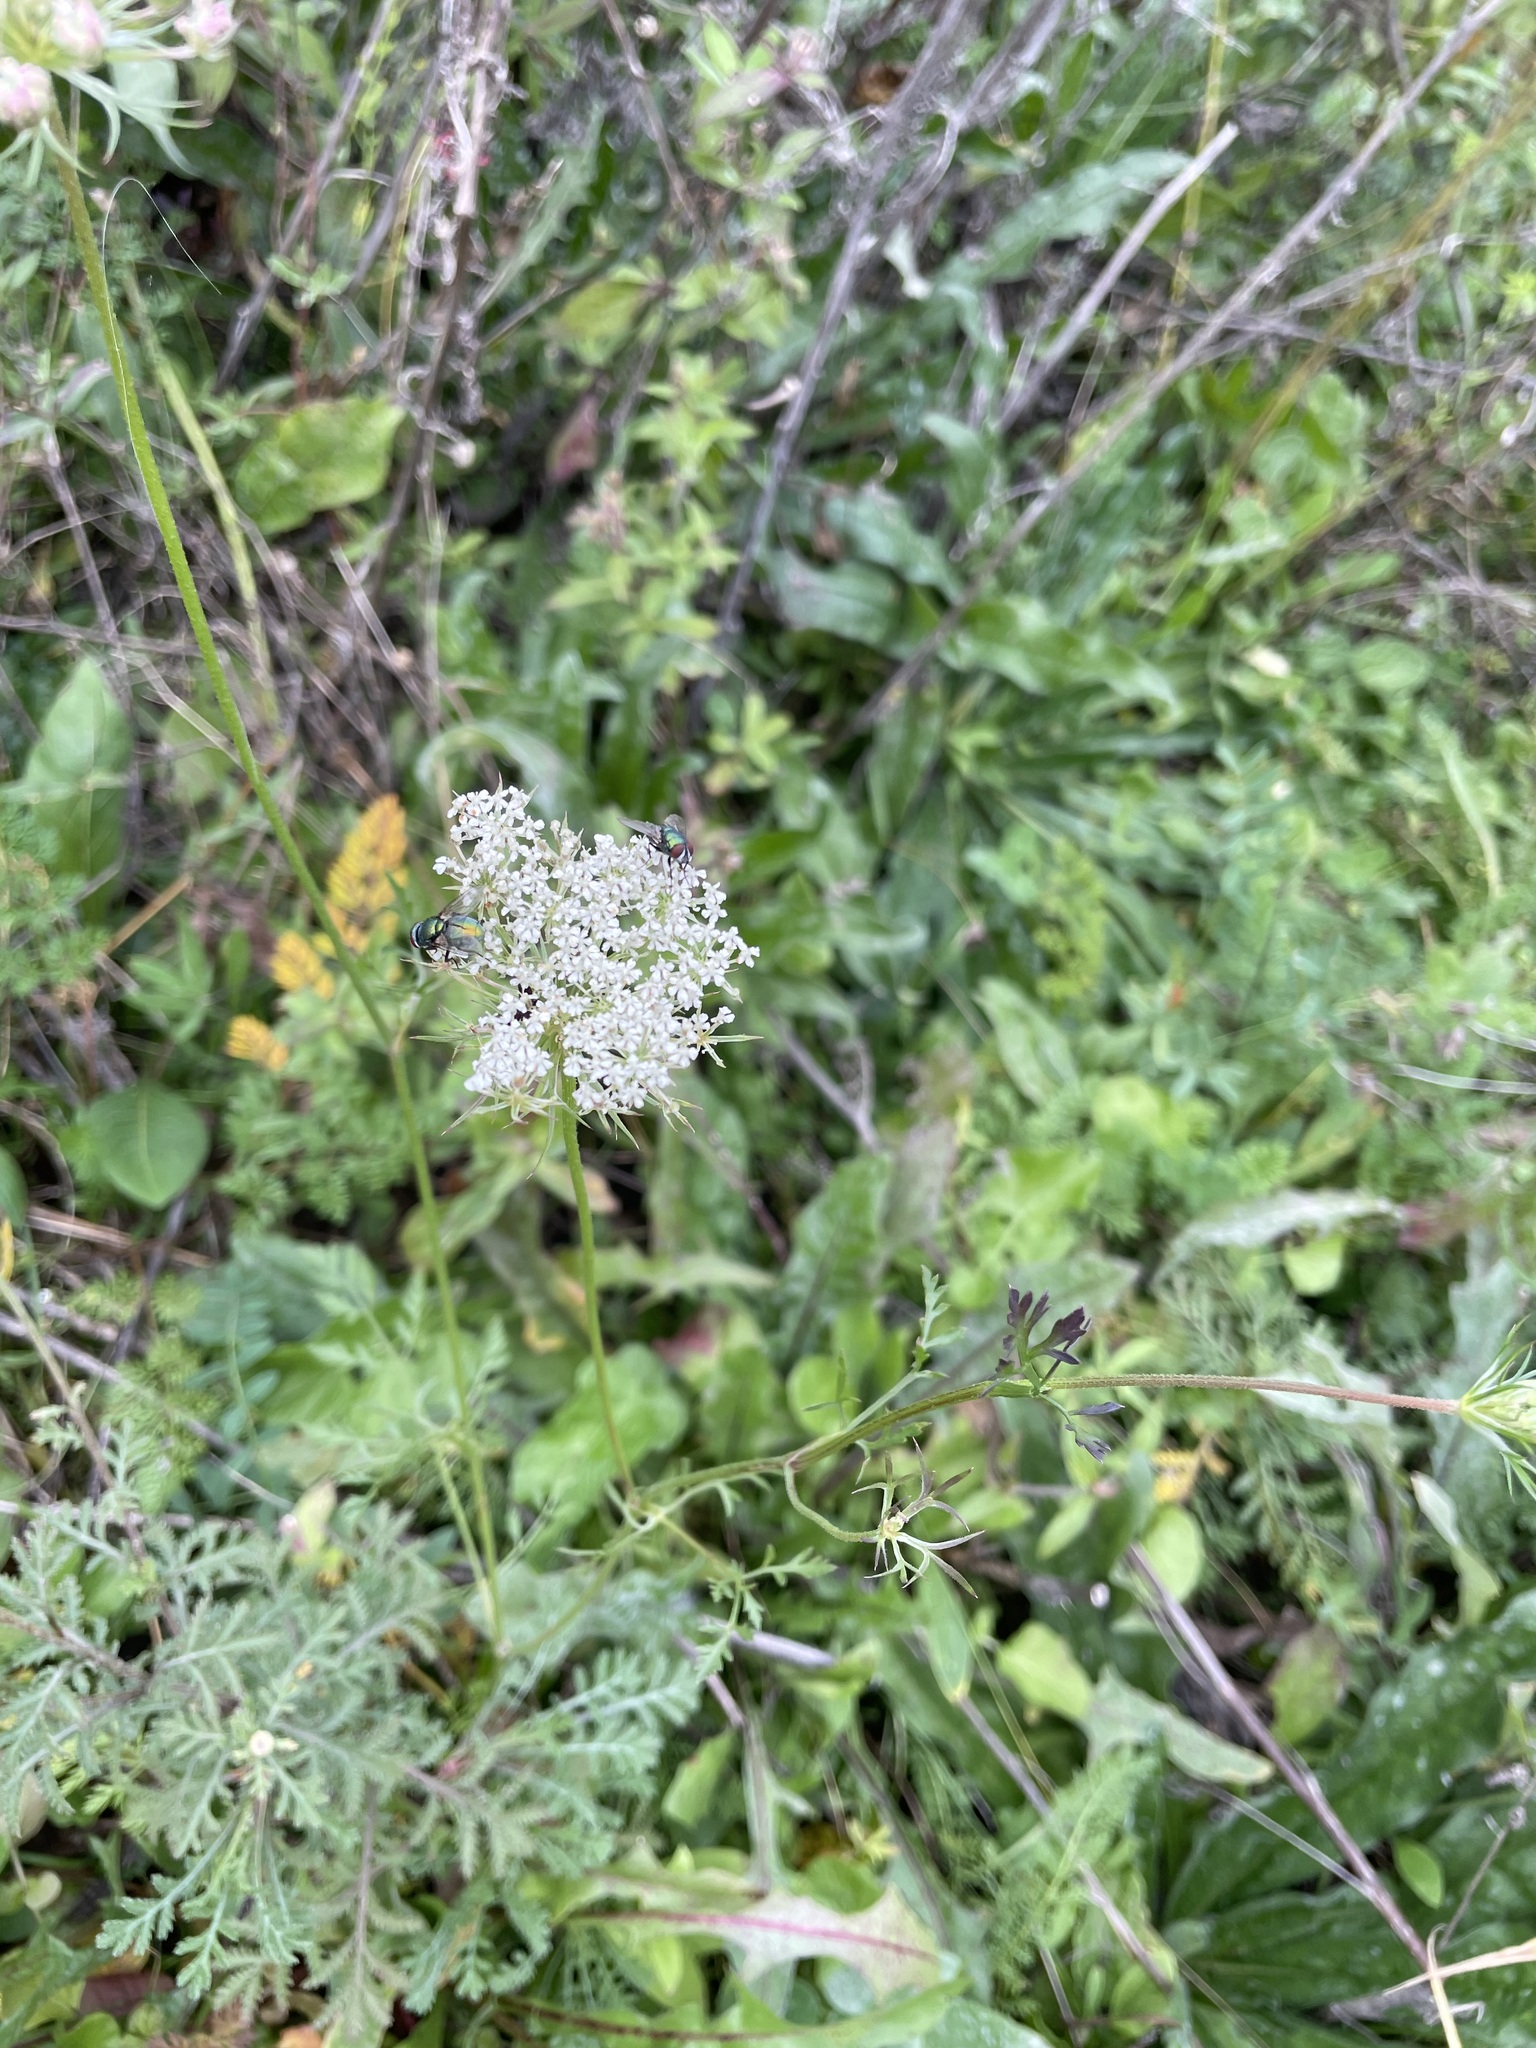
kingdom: Plantae
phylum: Tracheophyta
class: Magnoliopsida
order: Apiales
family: Apiaceae
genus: Daucus
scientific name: Daucus carota
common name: Wild carrot
